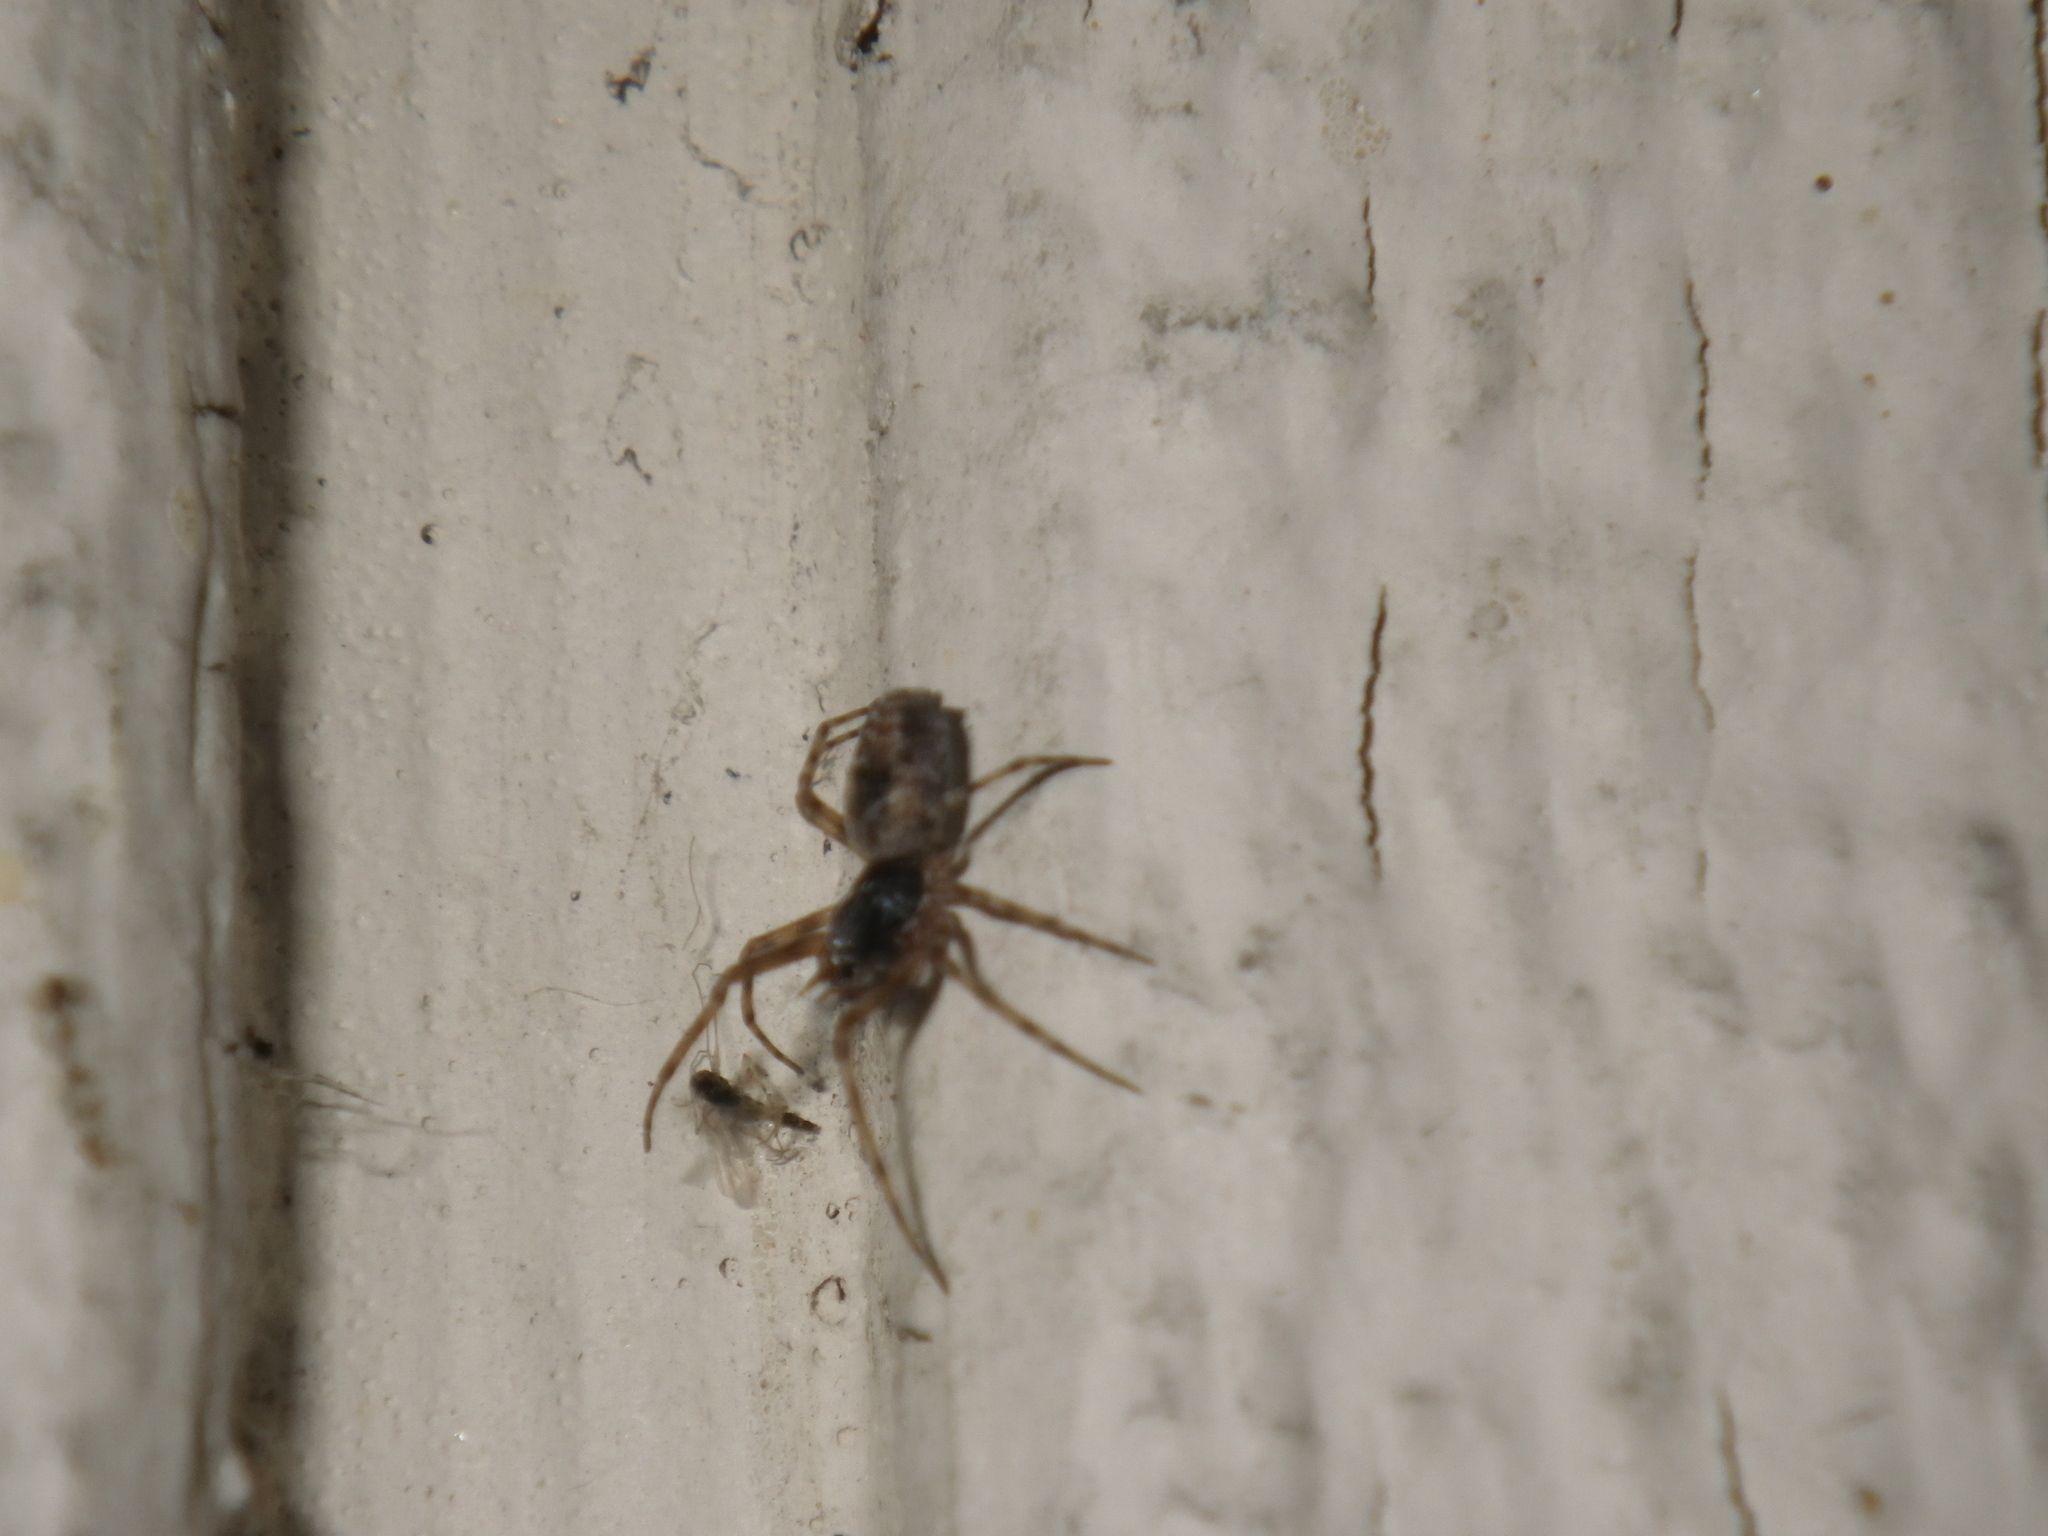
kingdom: Animalia
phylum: Arthropoda
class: Arachnida
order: Araneae
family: Dictynidae
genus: Dictyna
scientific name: Dictyna calcarata
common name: Mesh weaver
